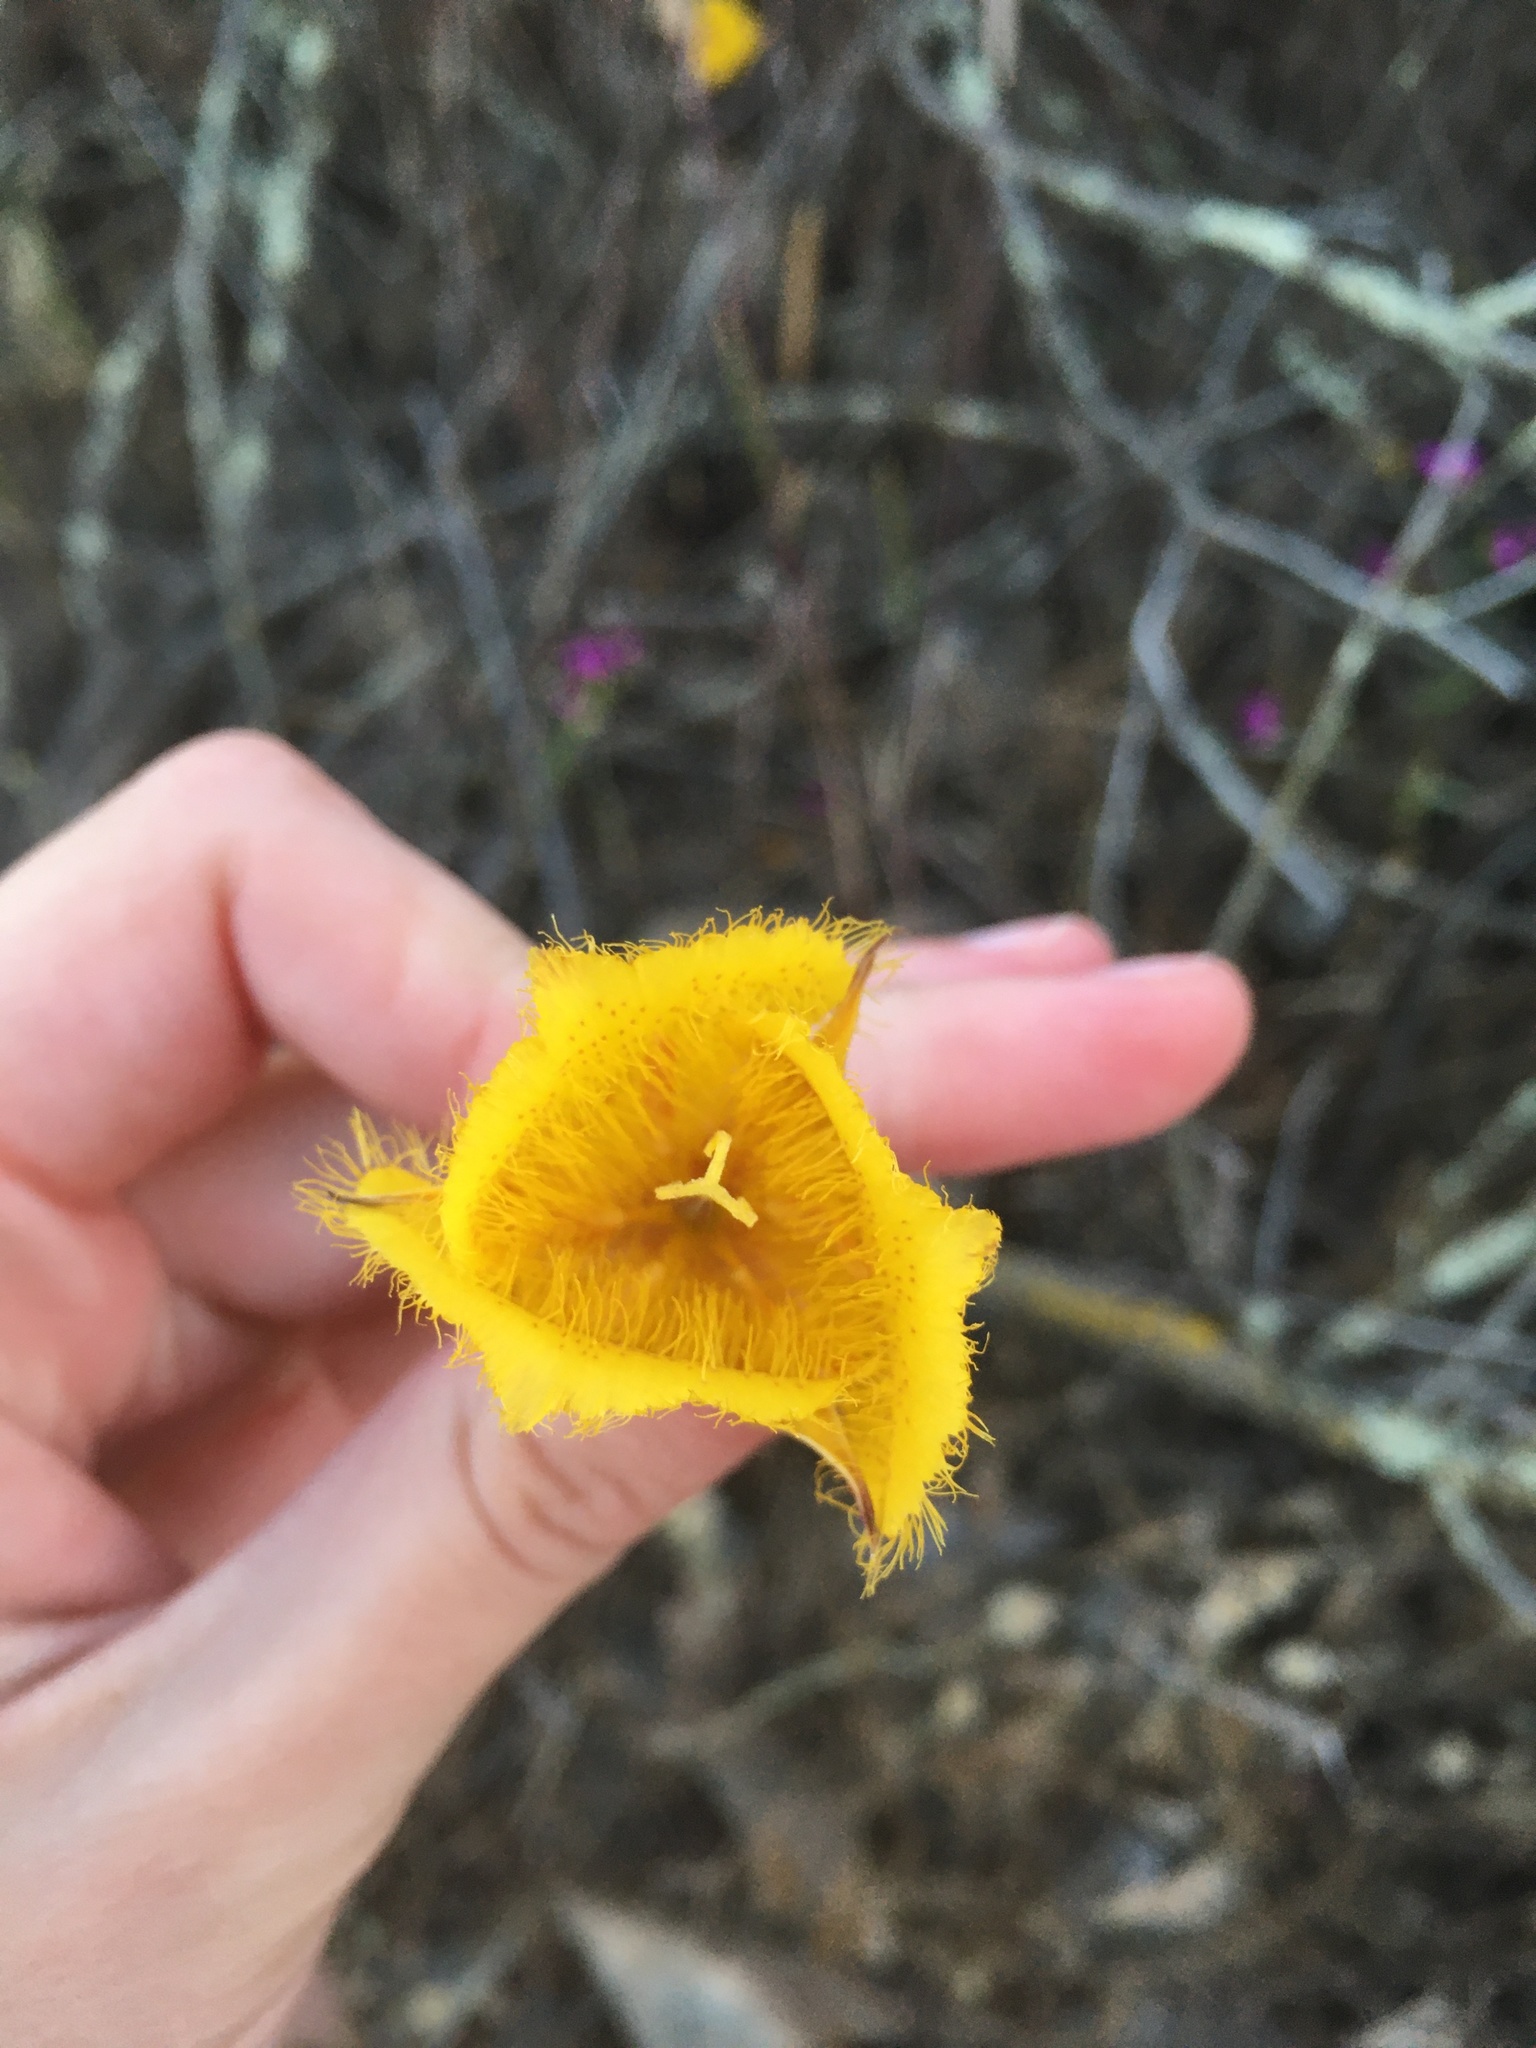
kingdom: Plantae
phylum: Tracheophyta
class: Liliopsida
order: Liliales
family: Liliaceae
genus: Calochortus
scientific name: Calochortus weedii
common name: Weed's mariposa-lily
